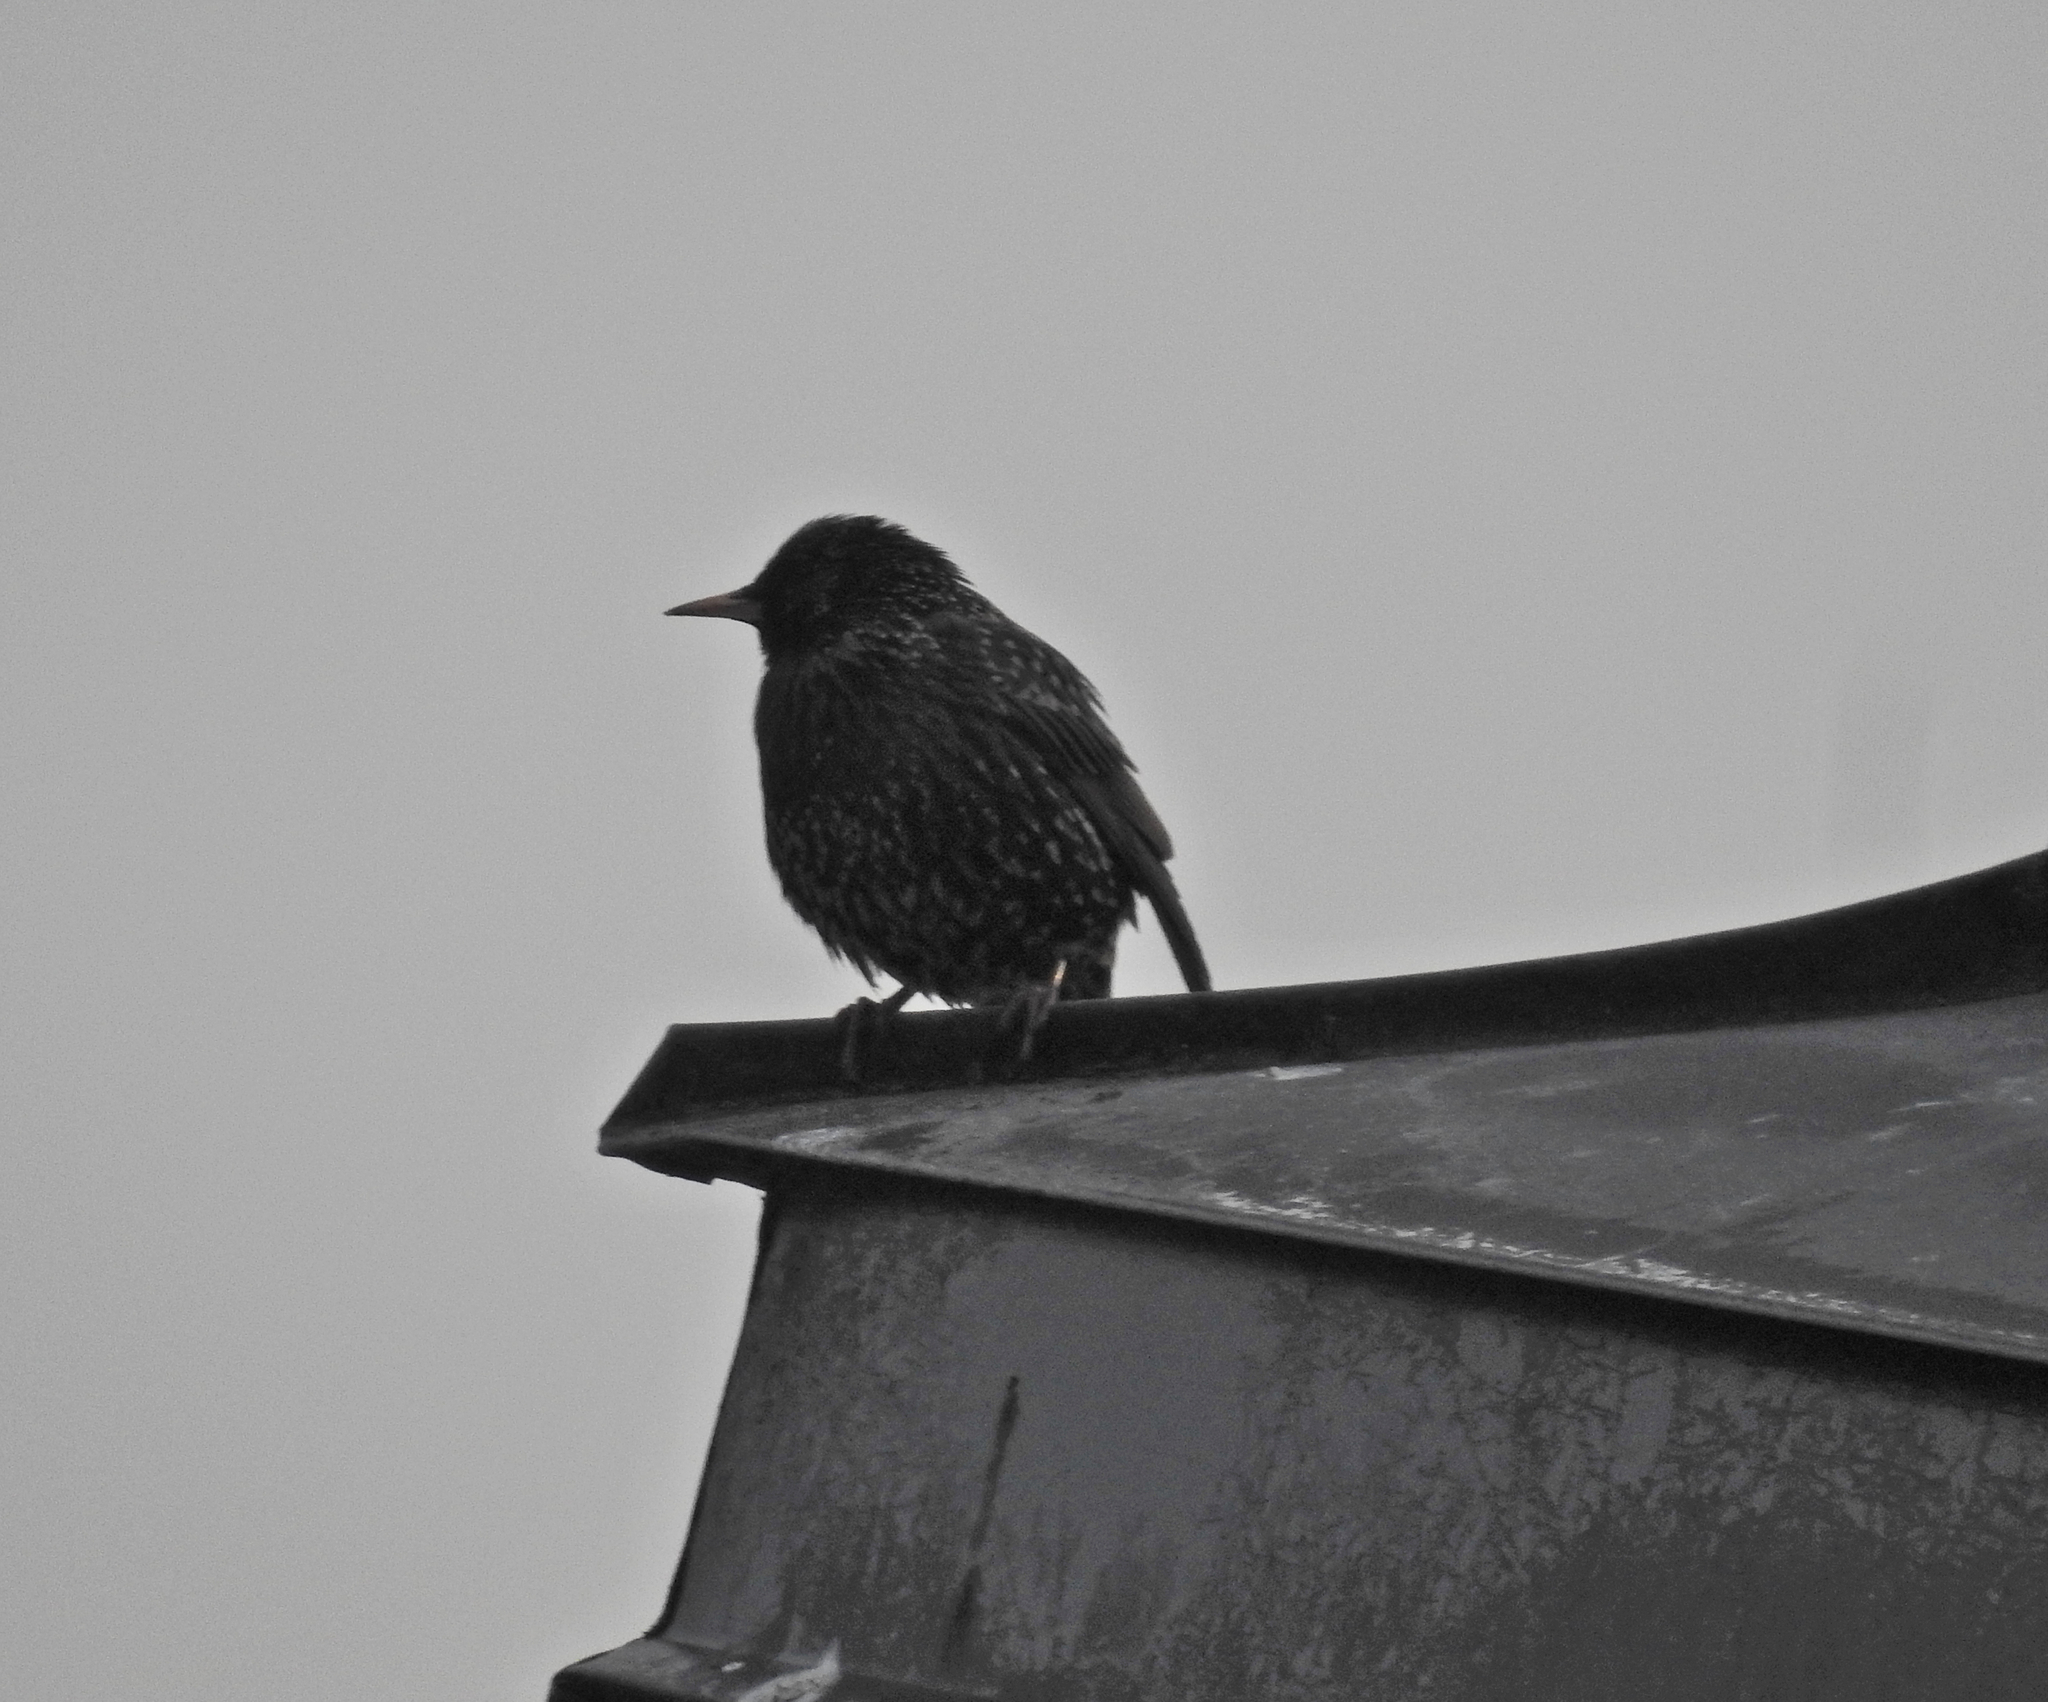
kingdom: Animalia
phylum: Chordata
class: Aves
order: Passeriformes
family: Sturnidae
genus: Sturnus
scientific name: Sturnus vulgaris
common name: Common starling
